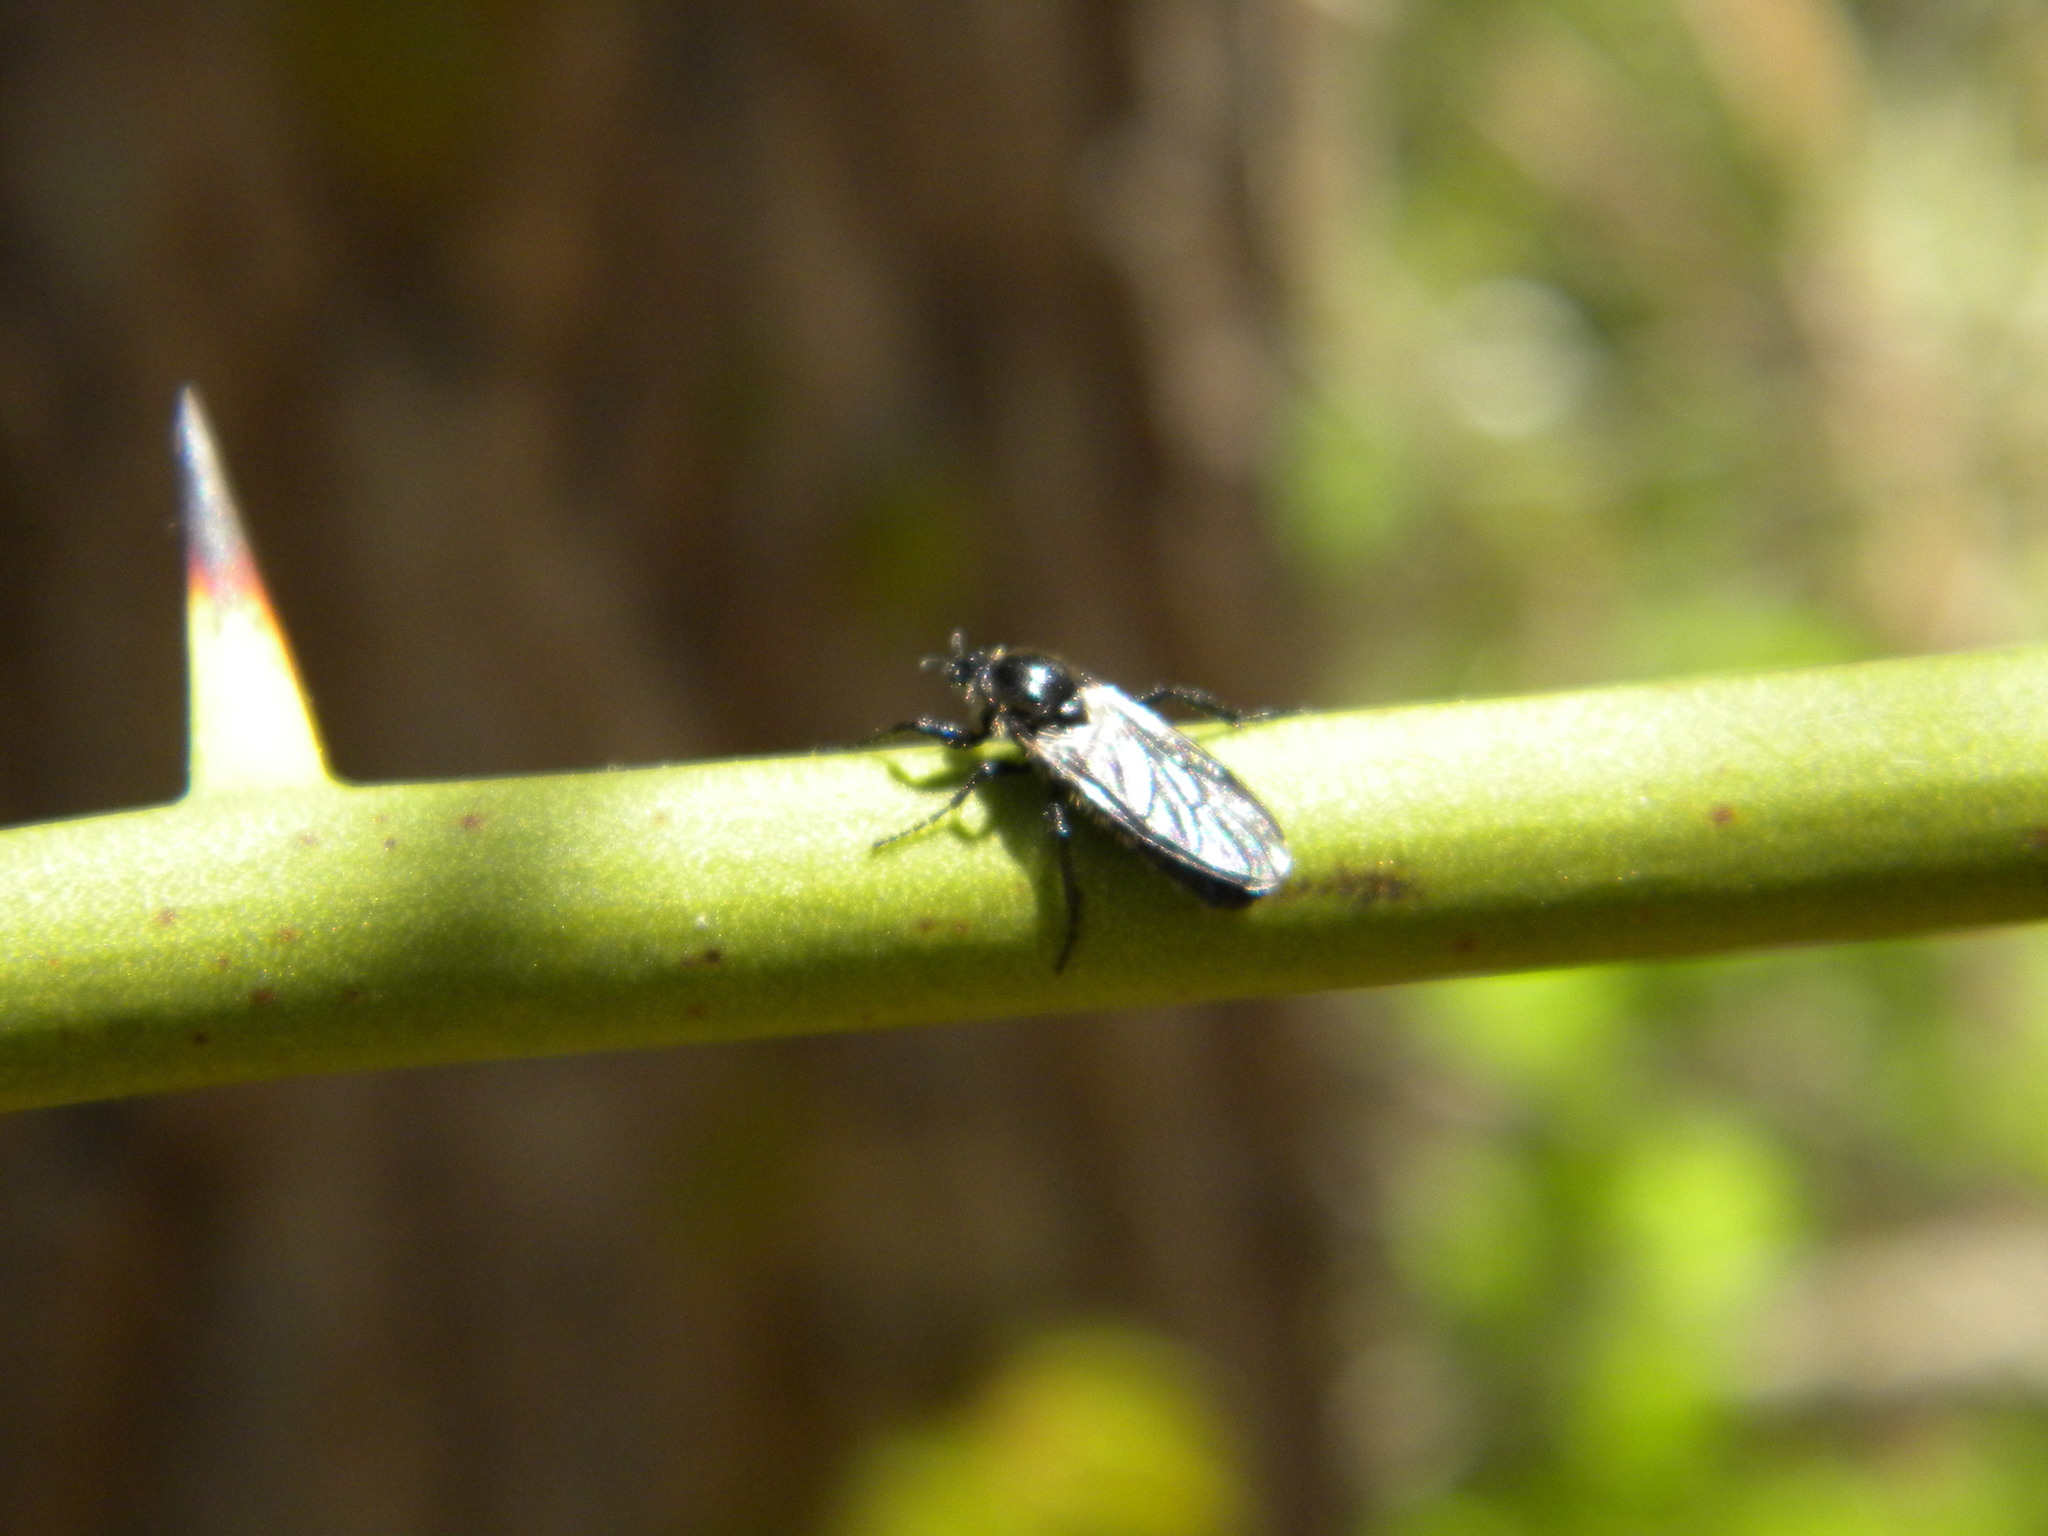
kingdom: Animalia
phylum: Arthropoda
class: Insecta
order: Diptera
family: Bibionidae
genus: Bibio
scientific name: Bibio
